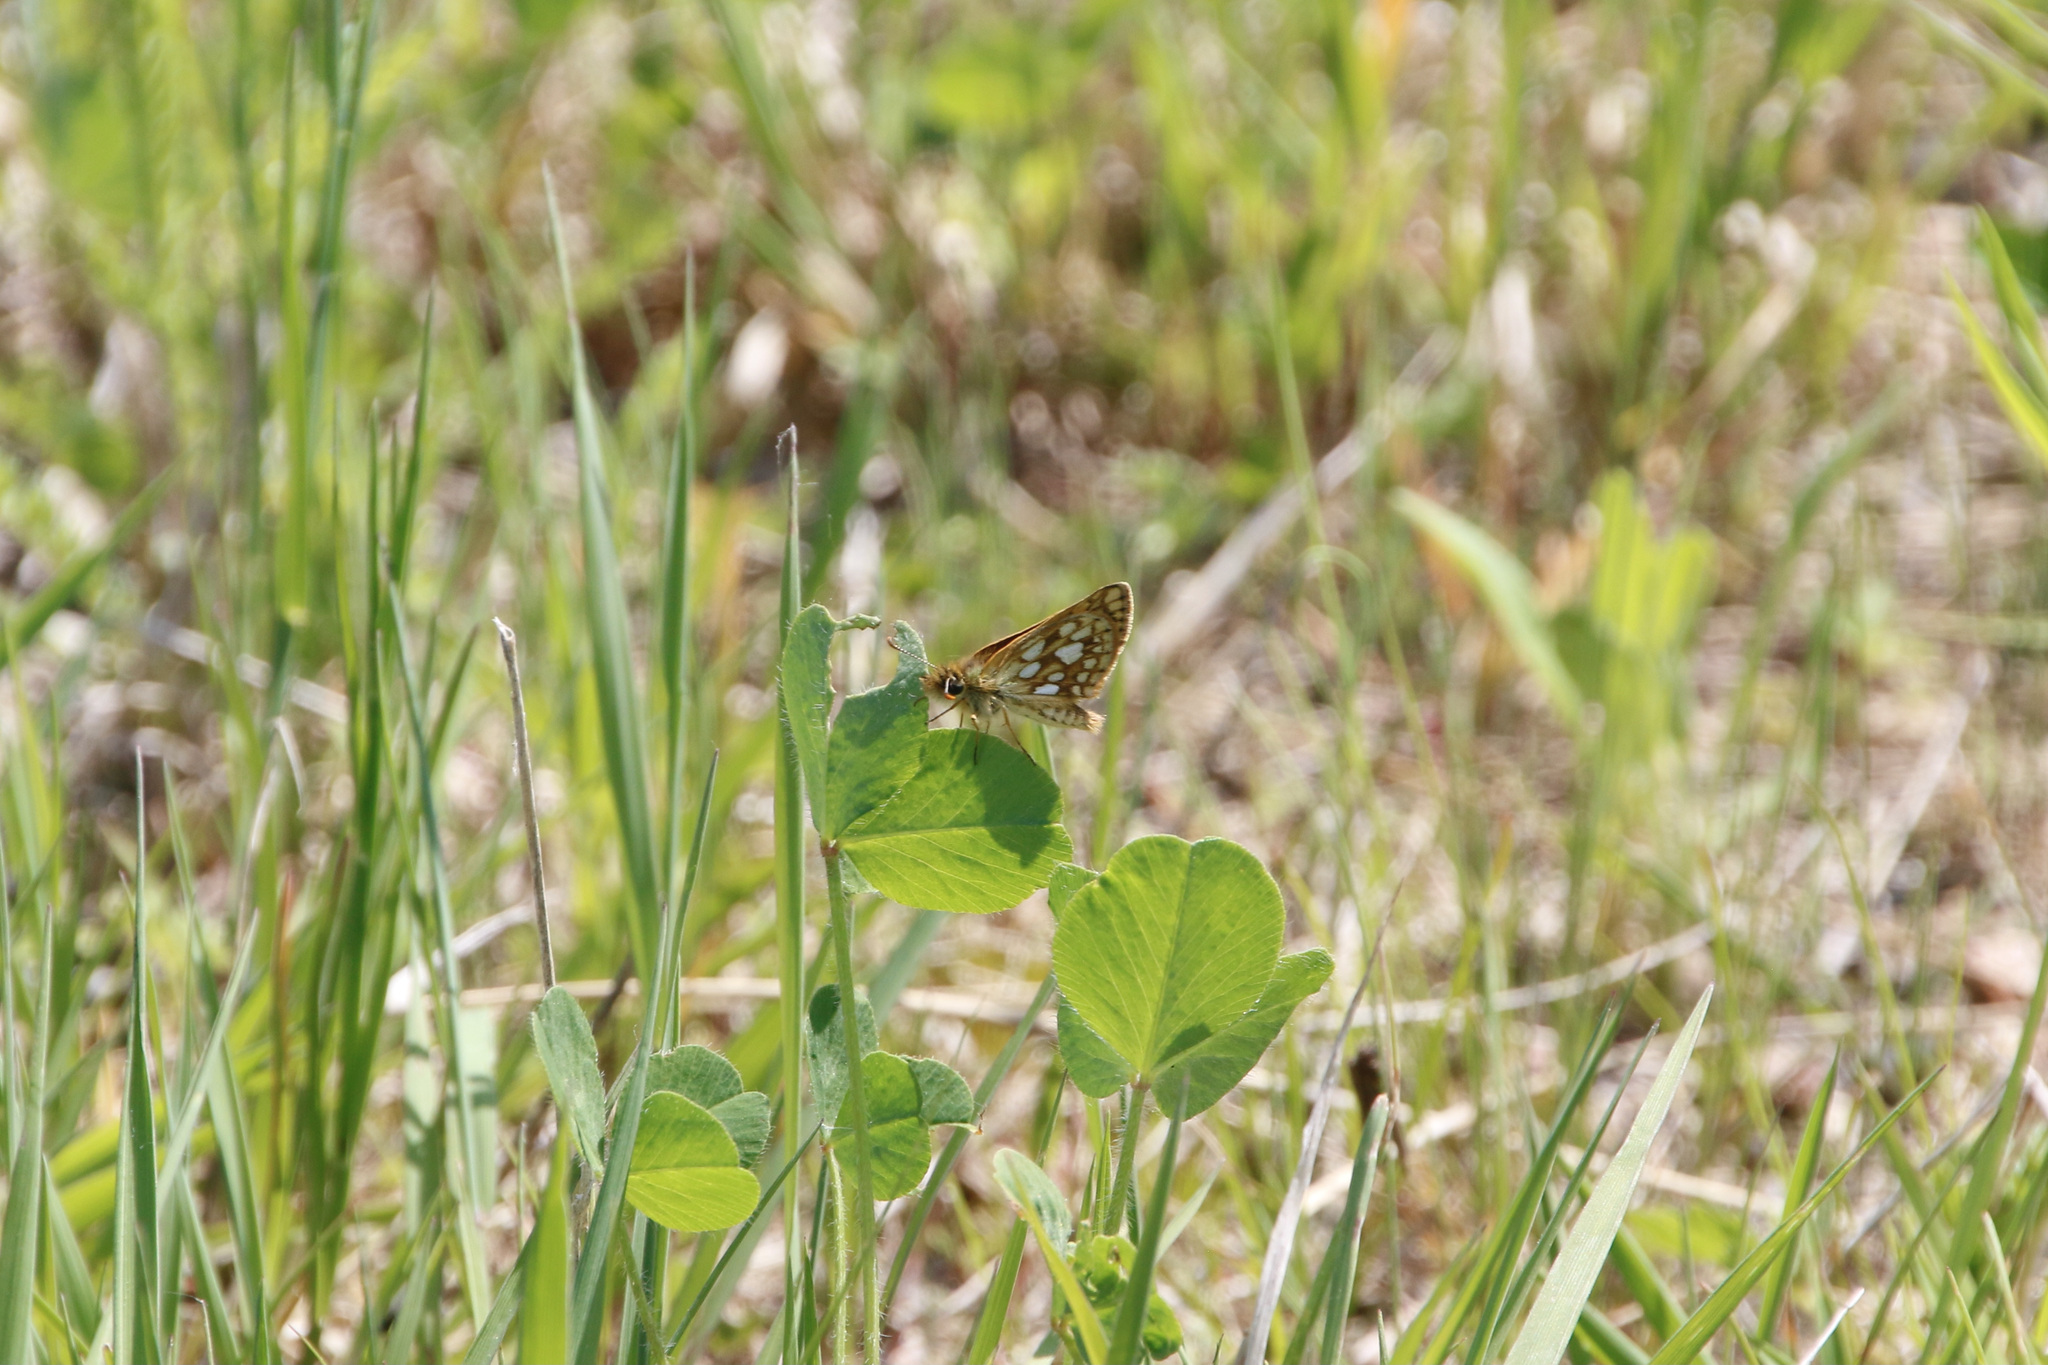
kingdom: Animalia
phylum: Arthropoda
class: Insecta
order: Lepidoptera
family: Hesperiidae
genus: Carterocephalus
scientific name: Carterocephalus mandan
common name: Arctic skipperling
